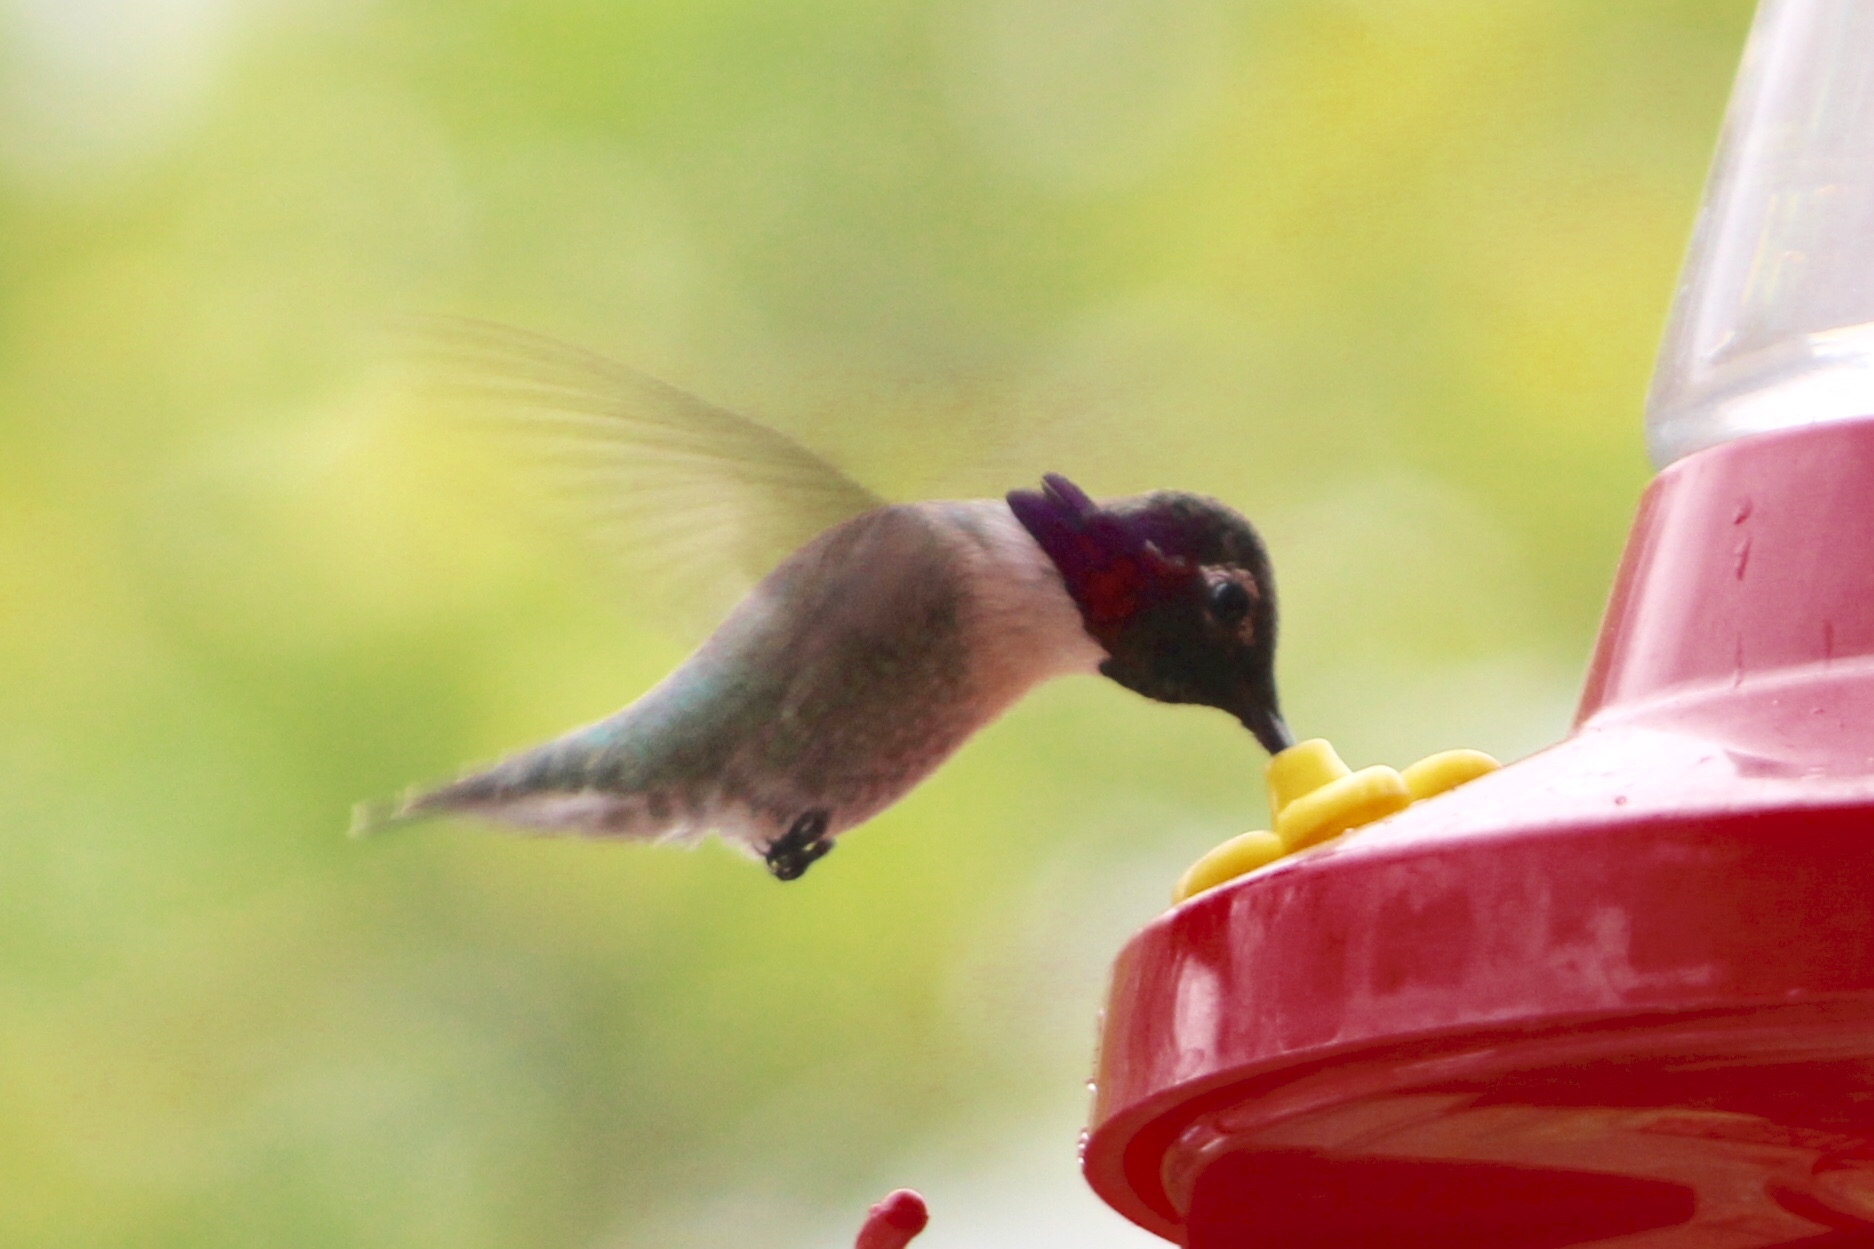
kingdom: Animalia
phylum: Chordata
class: Aves
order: Apodiformes
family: Trochilidae
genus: Calypte
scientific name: Calypte anna
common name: Anna's hummingbird
